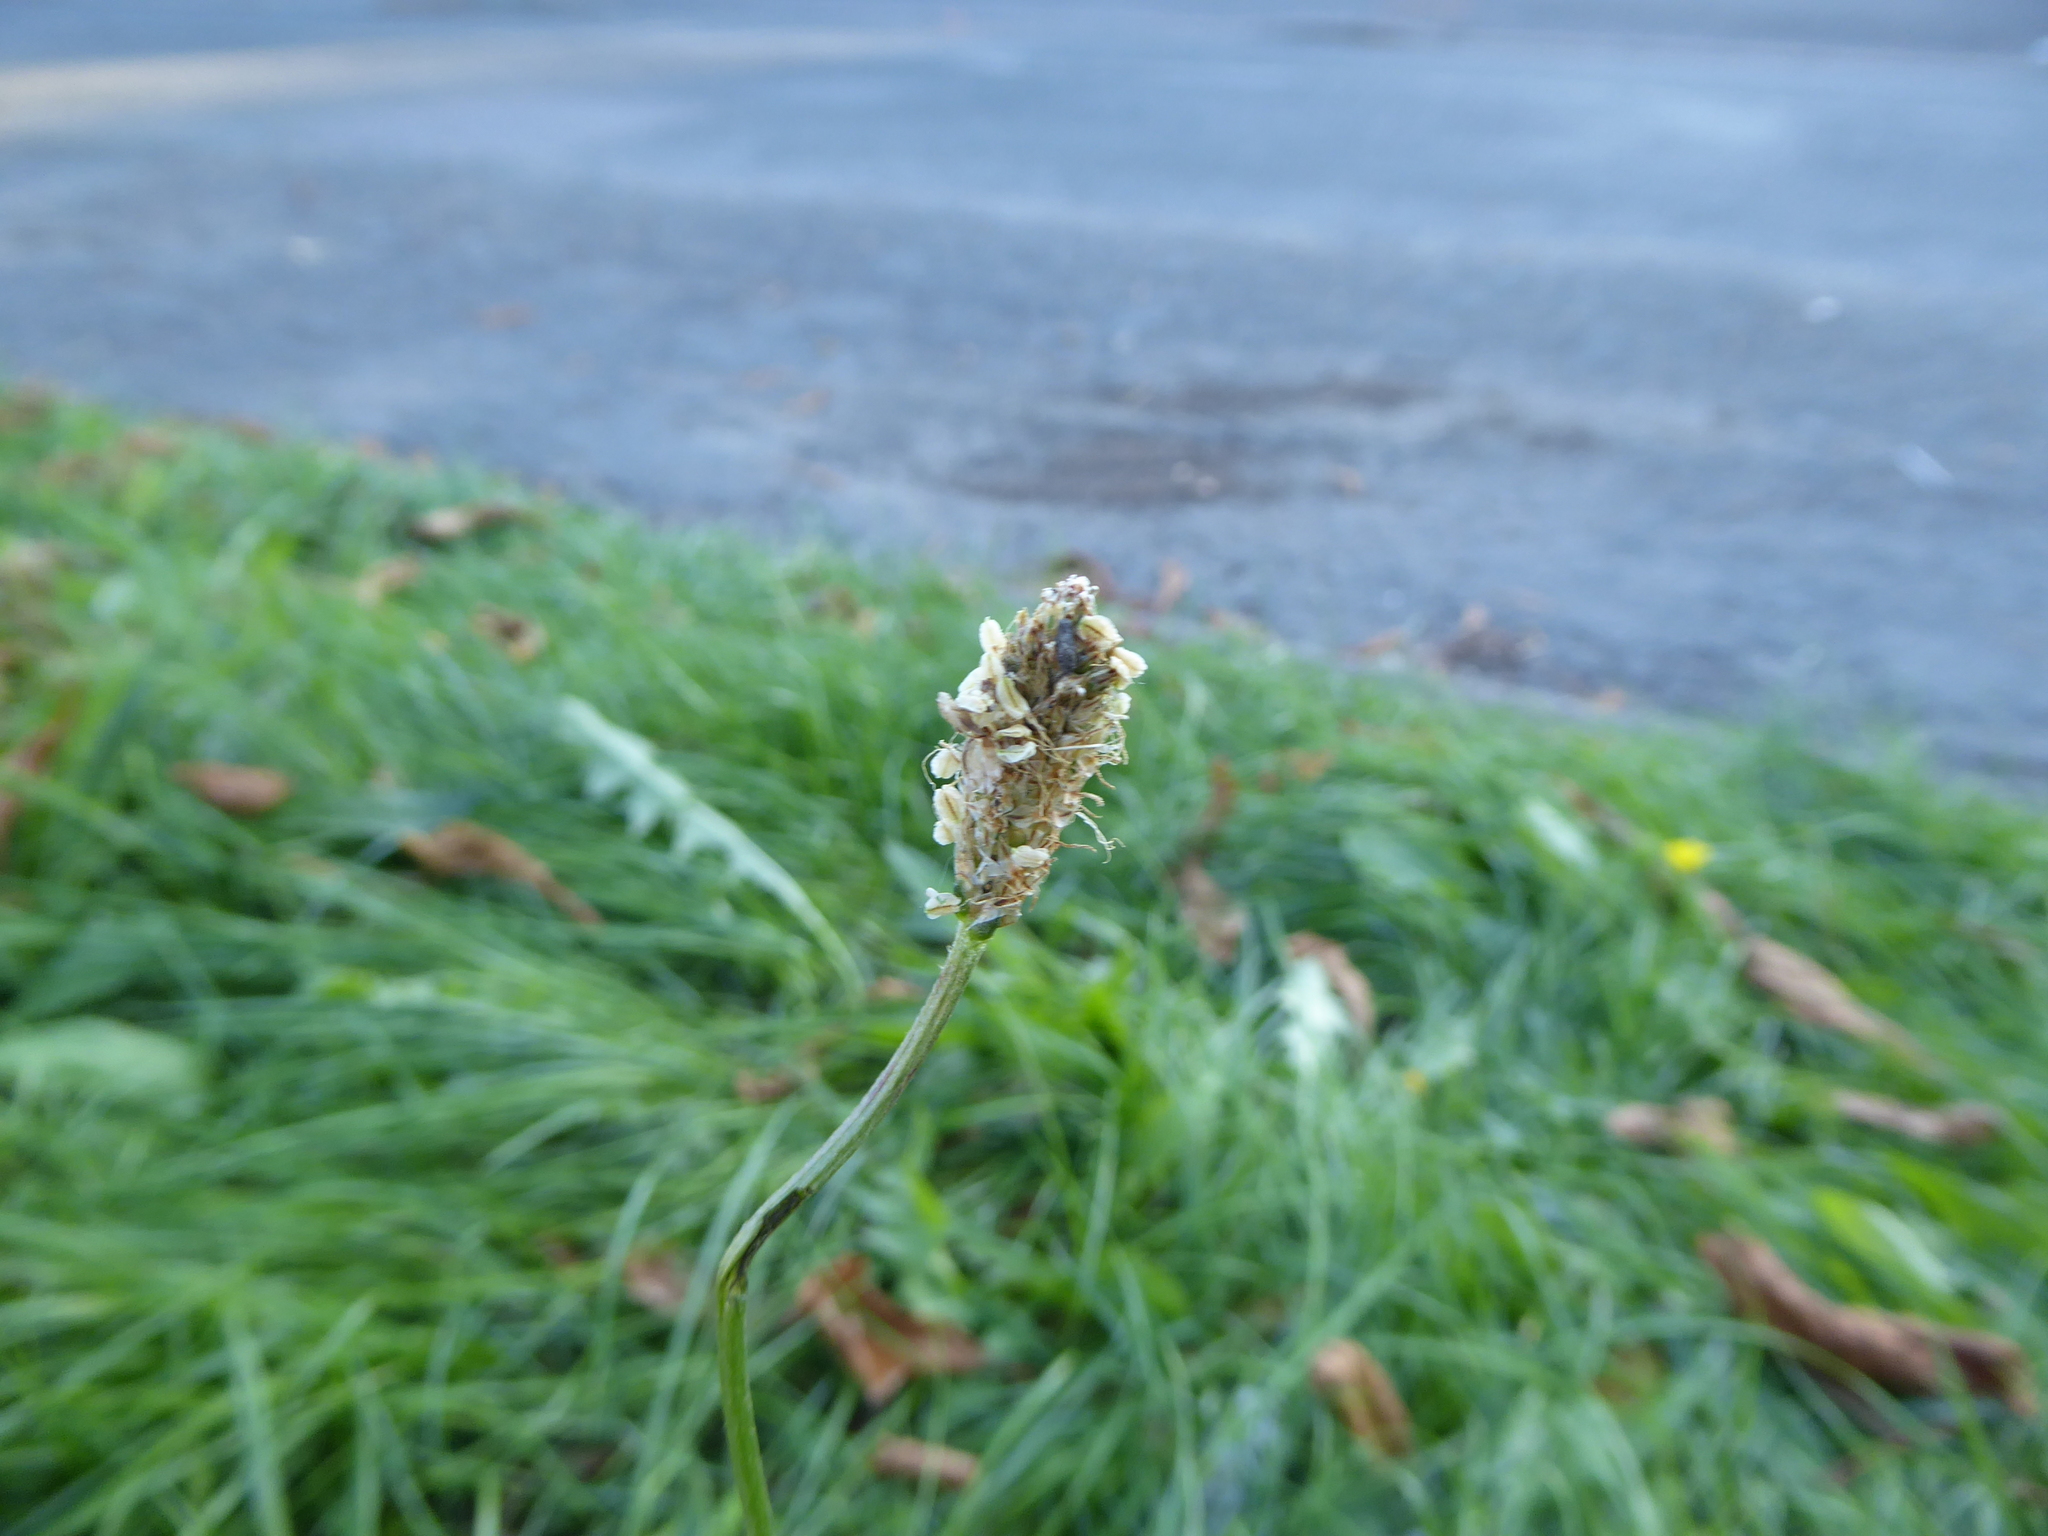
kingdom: Plantae
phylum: Tracheophyta
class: Magnoliopsida
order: Lamiales
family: Plantaginaceae
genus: Plantago
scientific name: Plantago lanceolata
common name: Ribwort plantain
